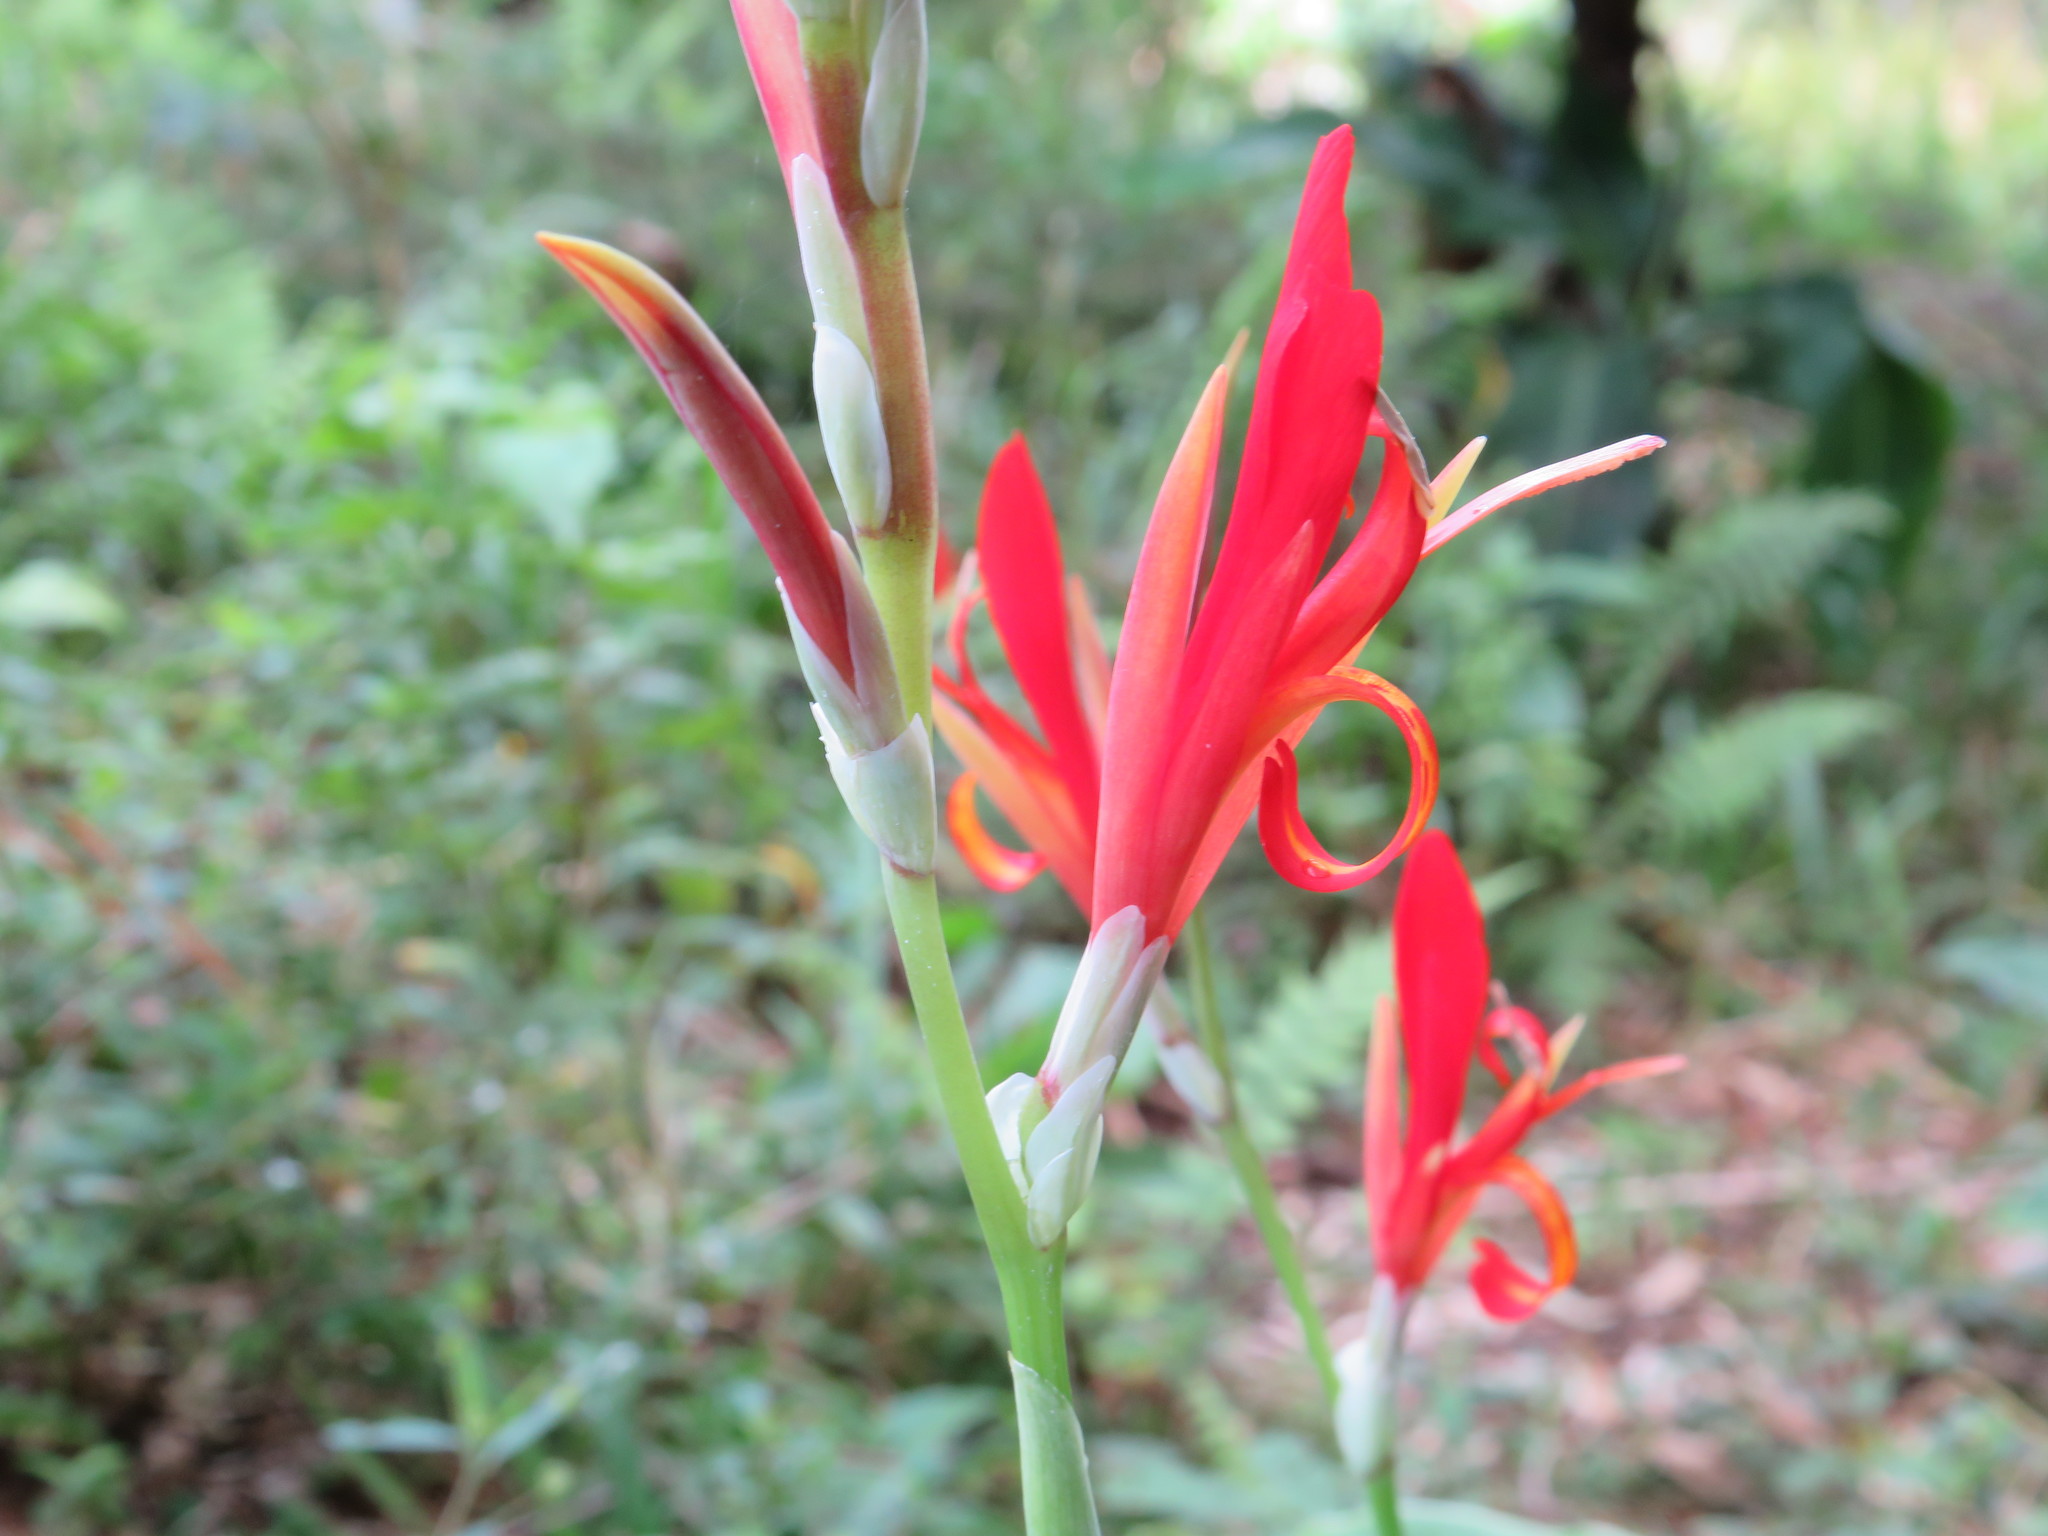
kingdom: Plantae
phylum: Tracheophyta
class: Liliopsida
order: Zingiberales
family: Cannaceae
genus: Canna
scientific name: Canna indica
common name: Indian shot
